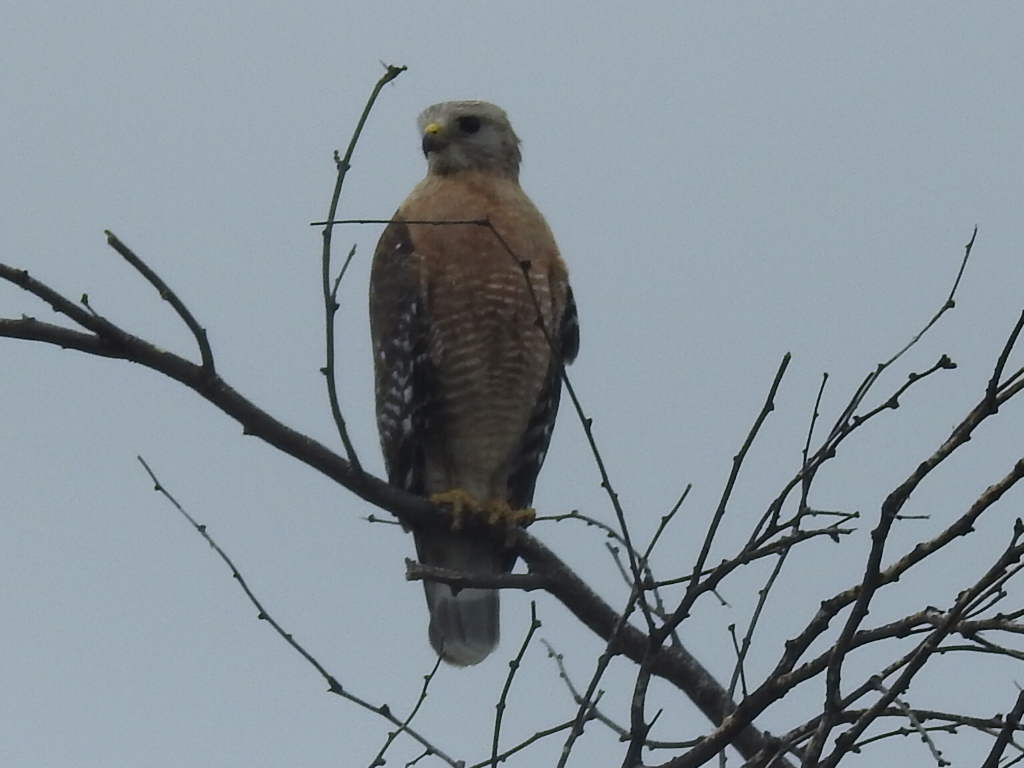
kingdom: Animalia
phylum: Chordata
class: Aves
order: Accipitriformes
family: Accipitridae
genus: Buteo
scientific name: Buteo lineatus
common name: Red-shouldered hawk
